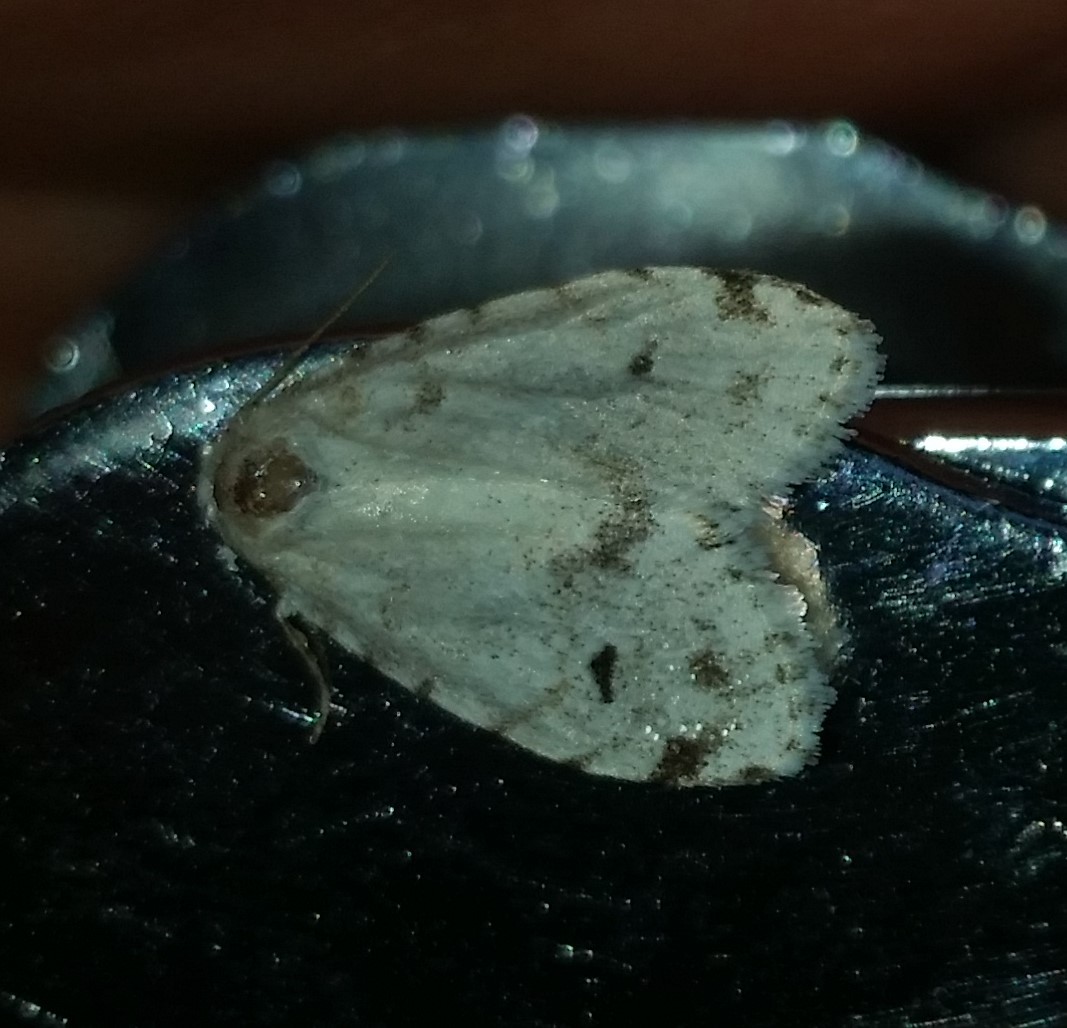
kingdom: Animalia
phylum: Arthropoda
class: Insecta
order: Lepidoptera
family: Erebidae
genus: Clemensia
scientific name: Clemensia albata
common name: Little white lichen moth
